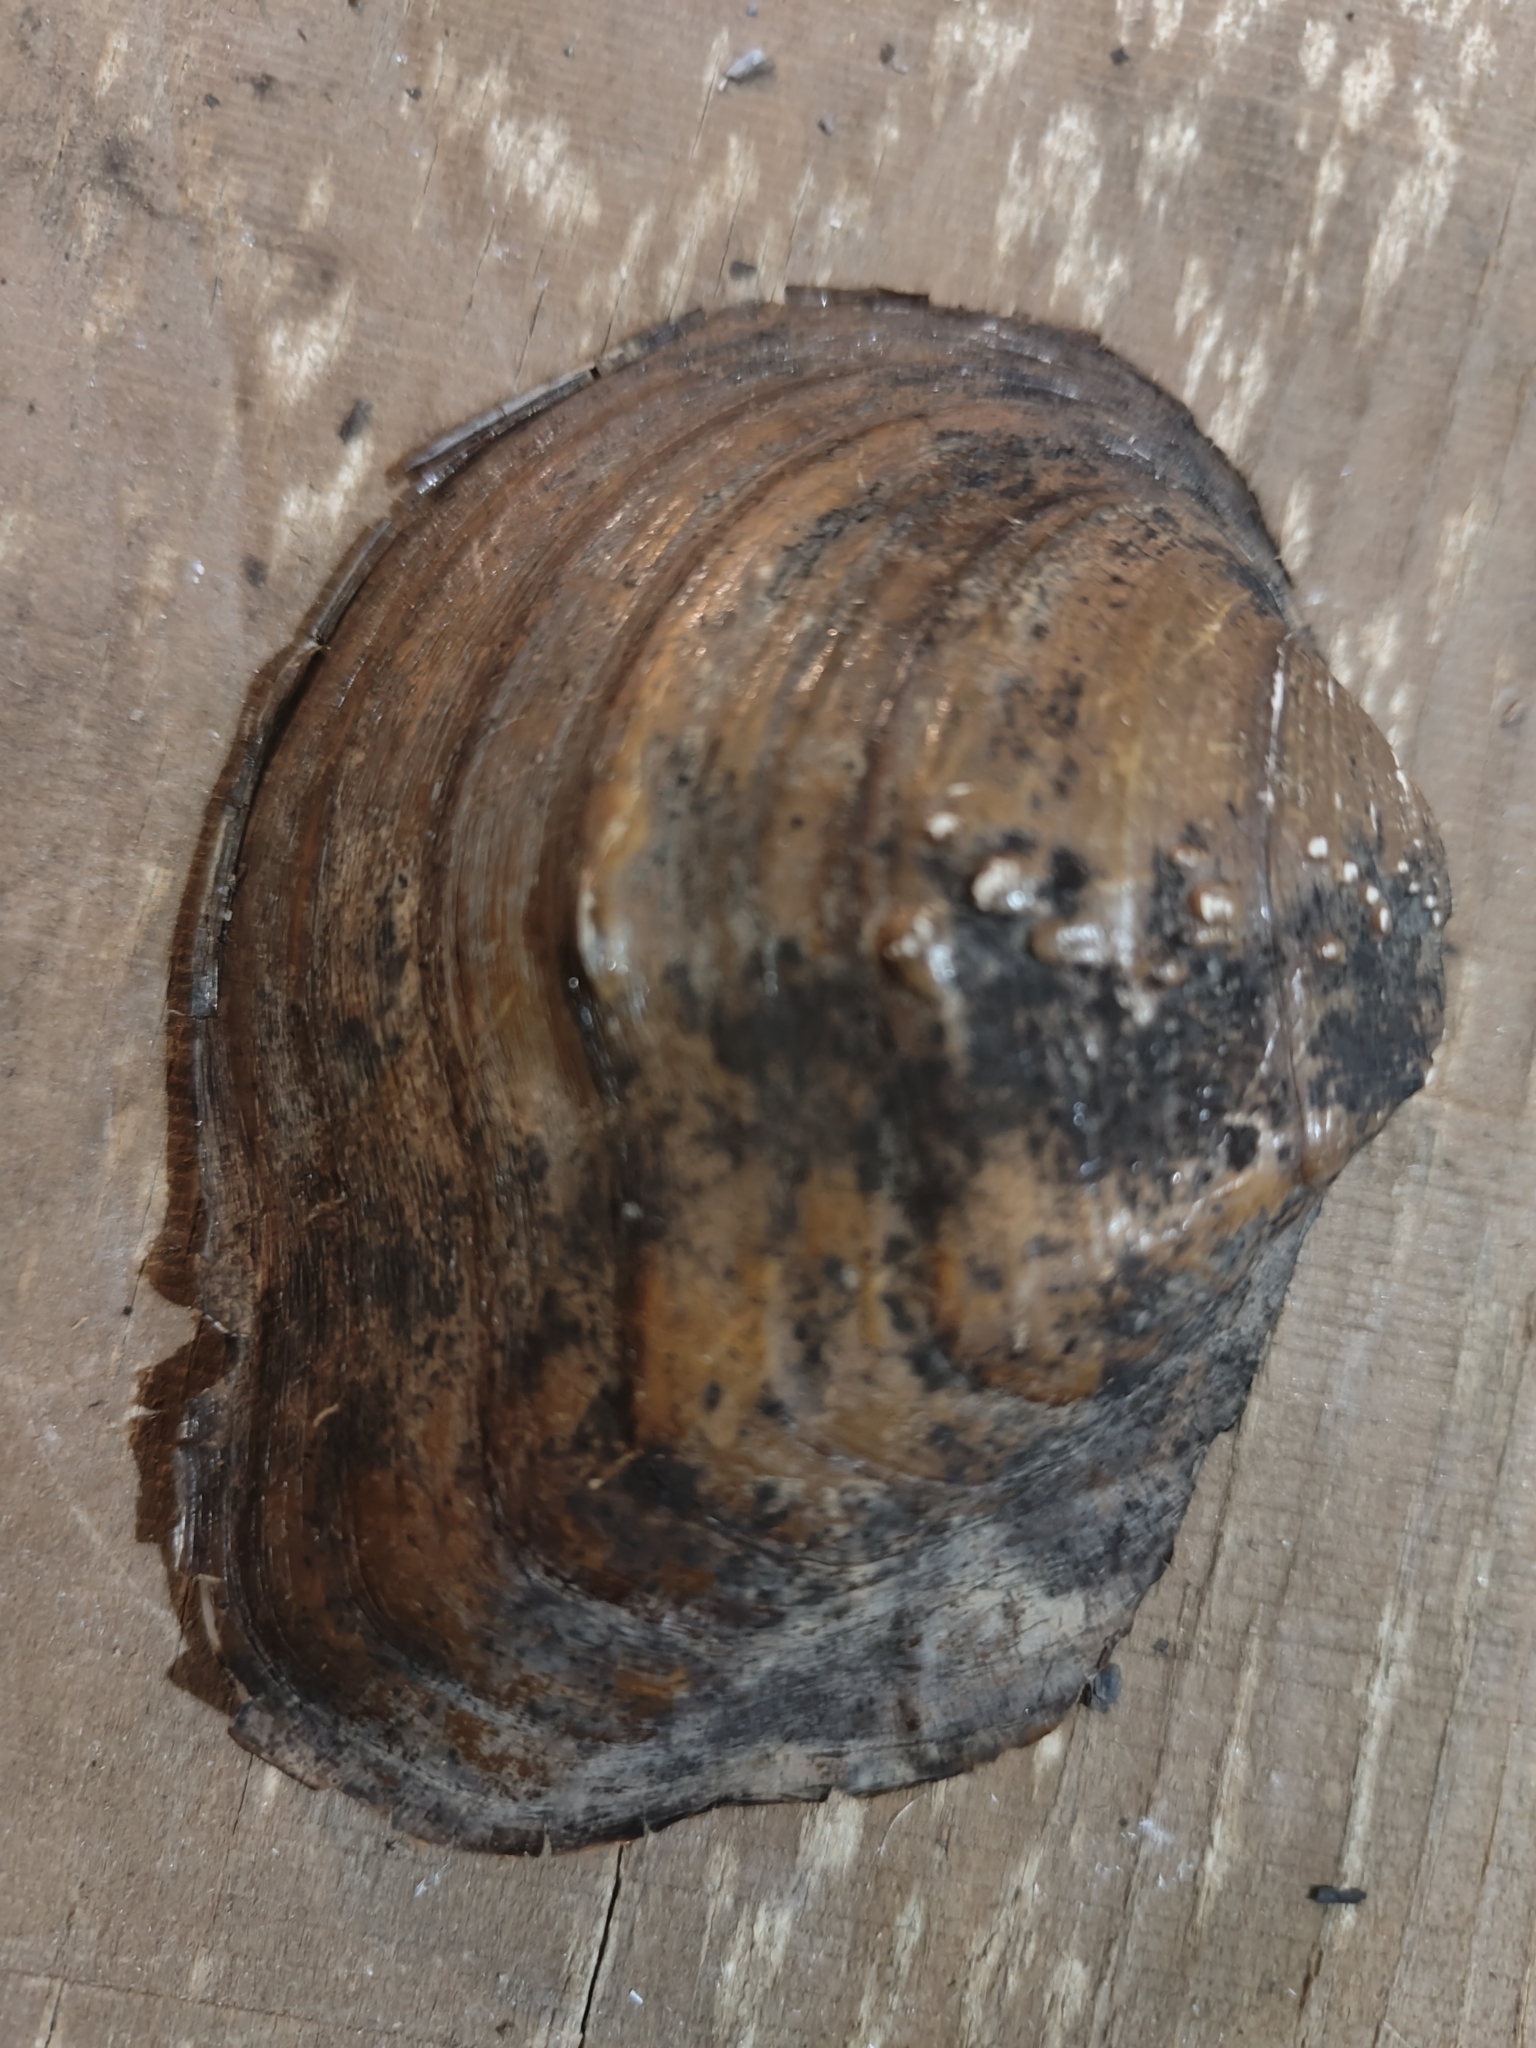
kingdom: Animalia
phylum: Mollusca
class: Bivalvia
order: Unionida
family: Unionidae
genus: Quadrula
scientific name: Quadrula quadrula
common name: Mapleleaf
